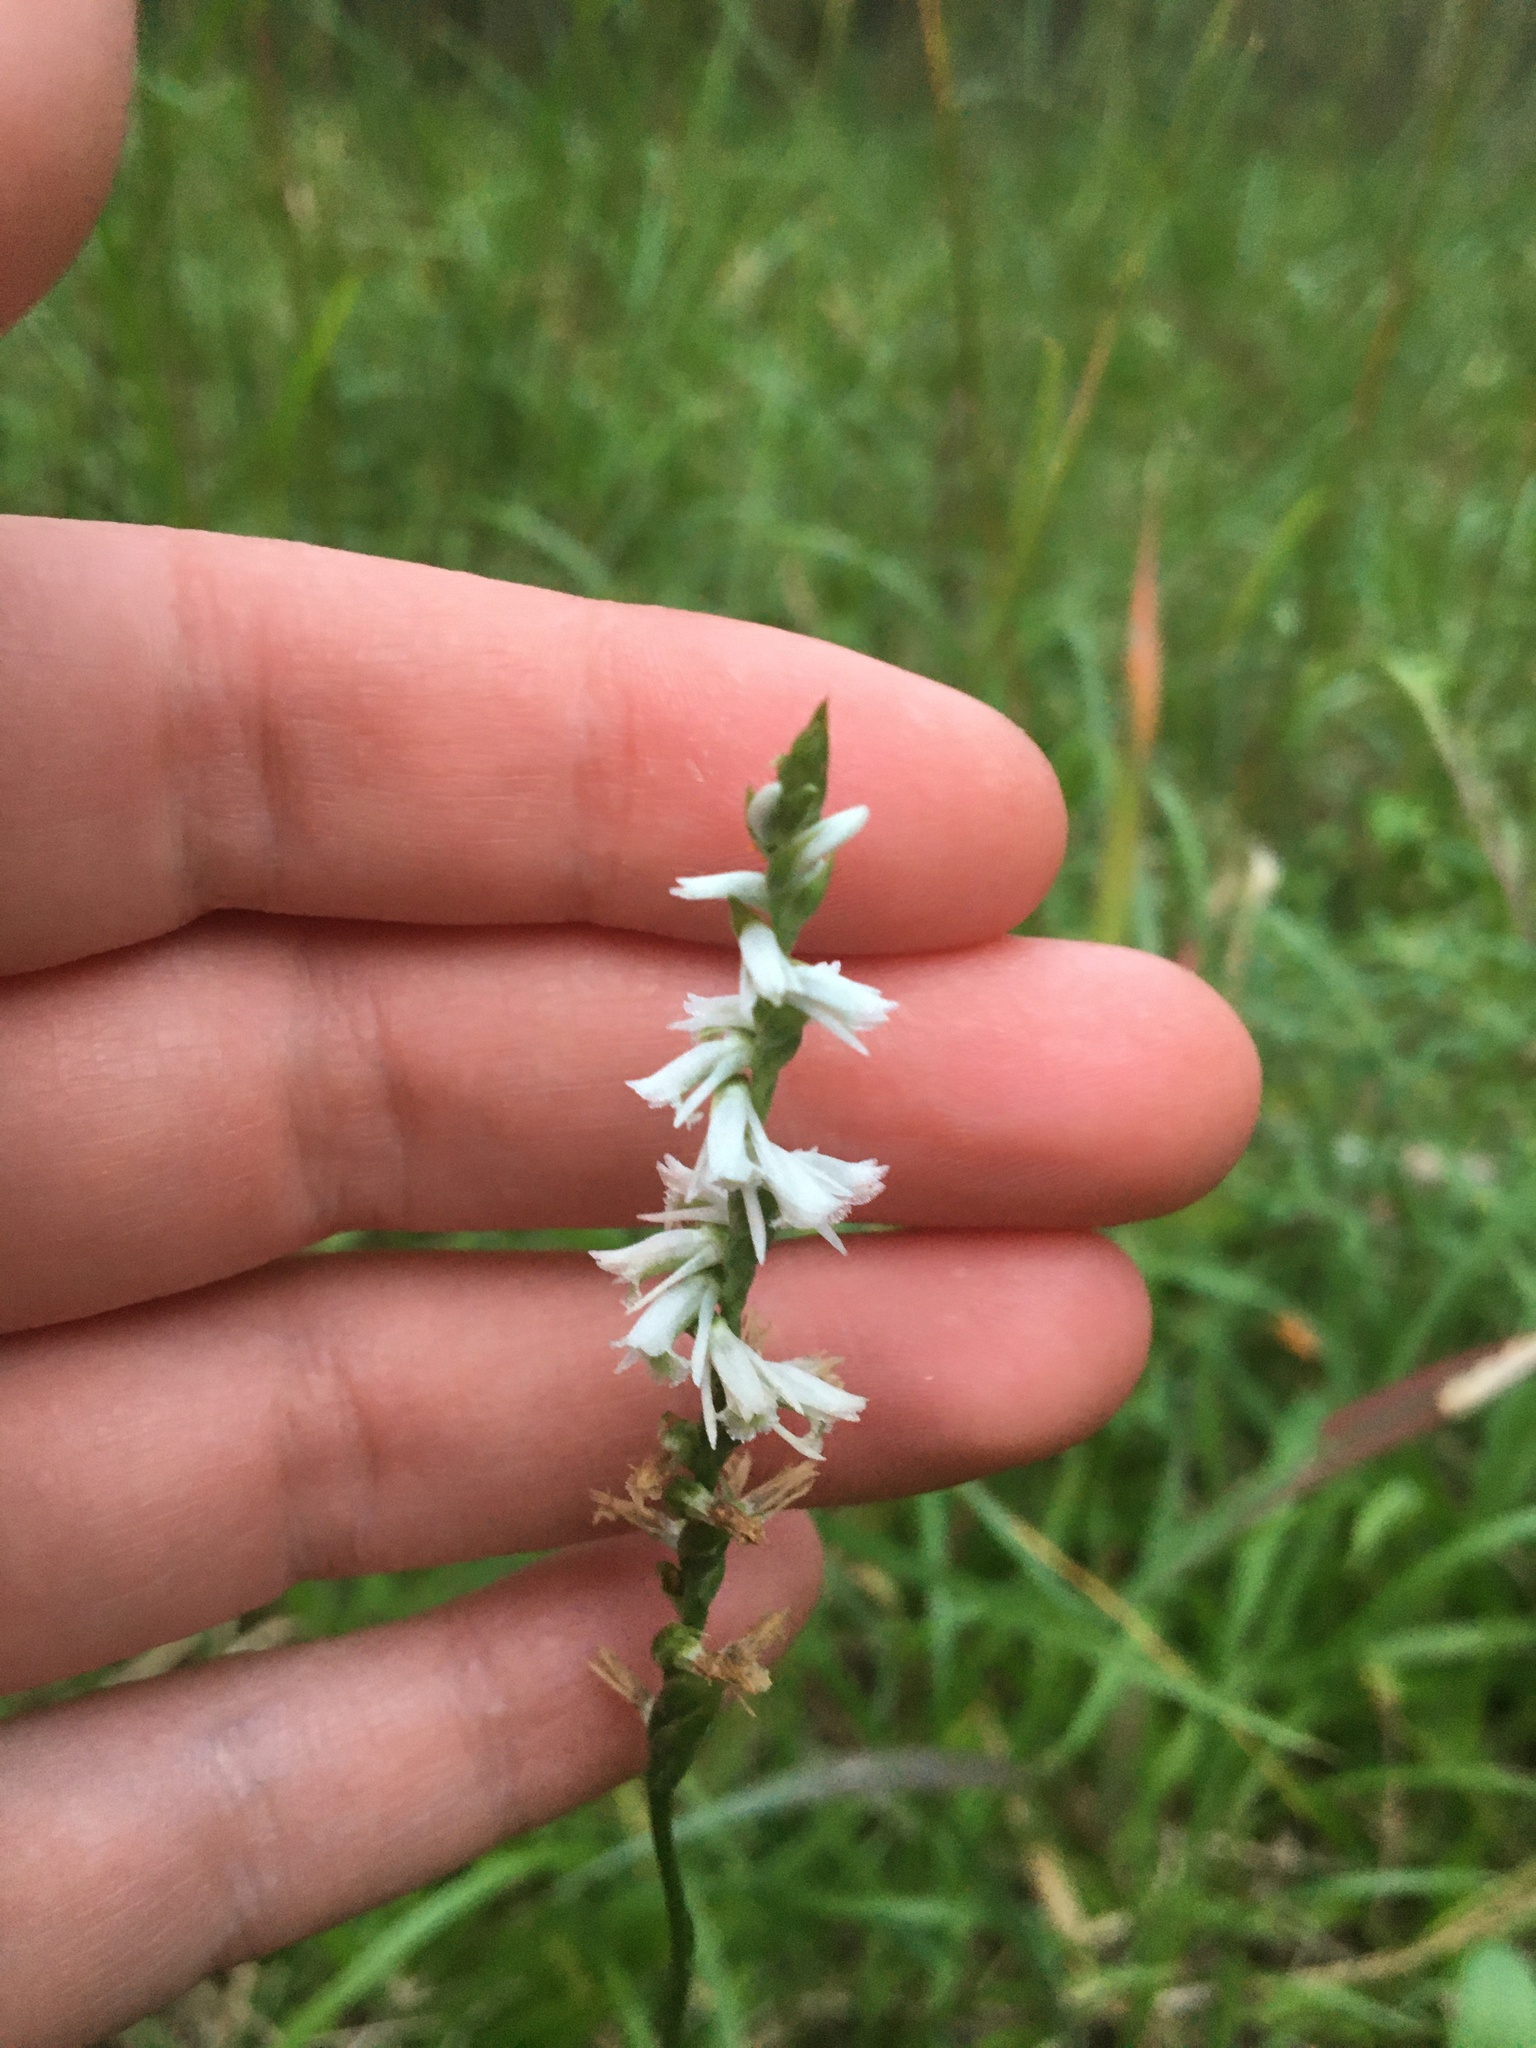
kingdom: Plantae
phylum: Tracheophyta
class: Liliopsida
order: Asparagales
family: Orchidaceae
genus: Spiranthes
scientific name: Spiranthes lacera
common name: Northern slender ladies'-tresses
